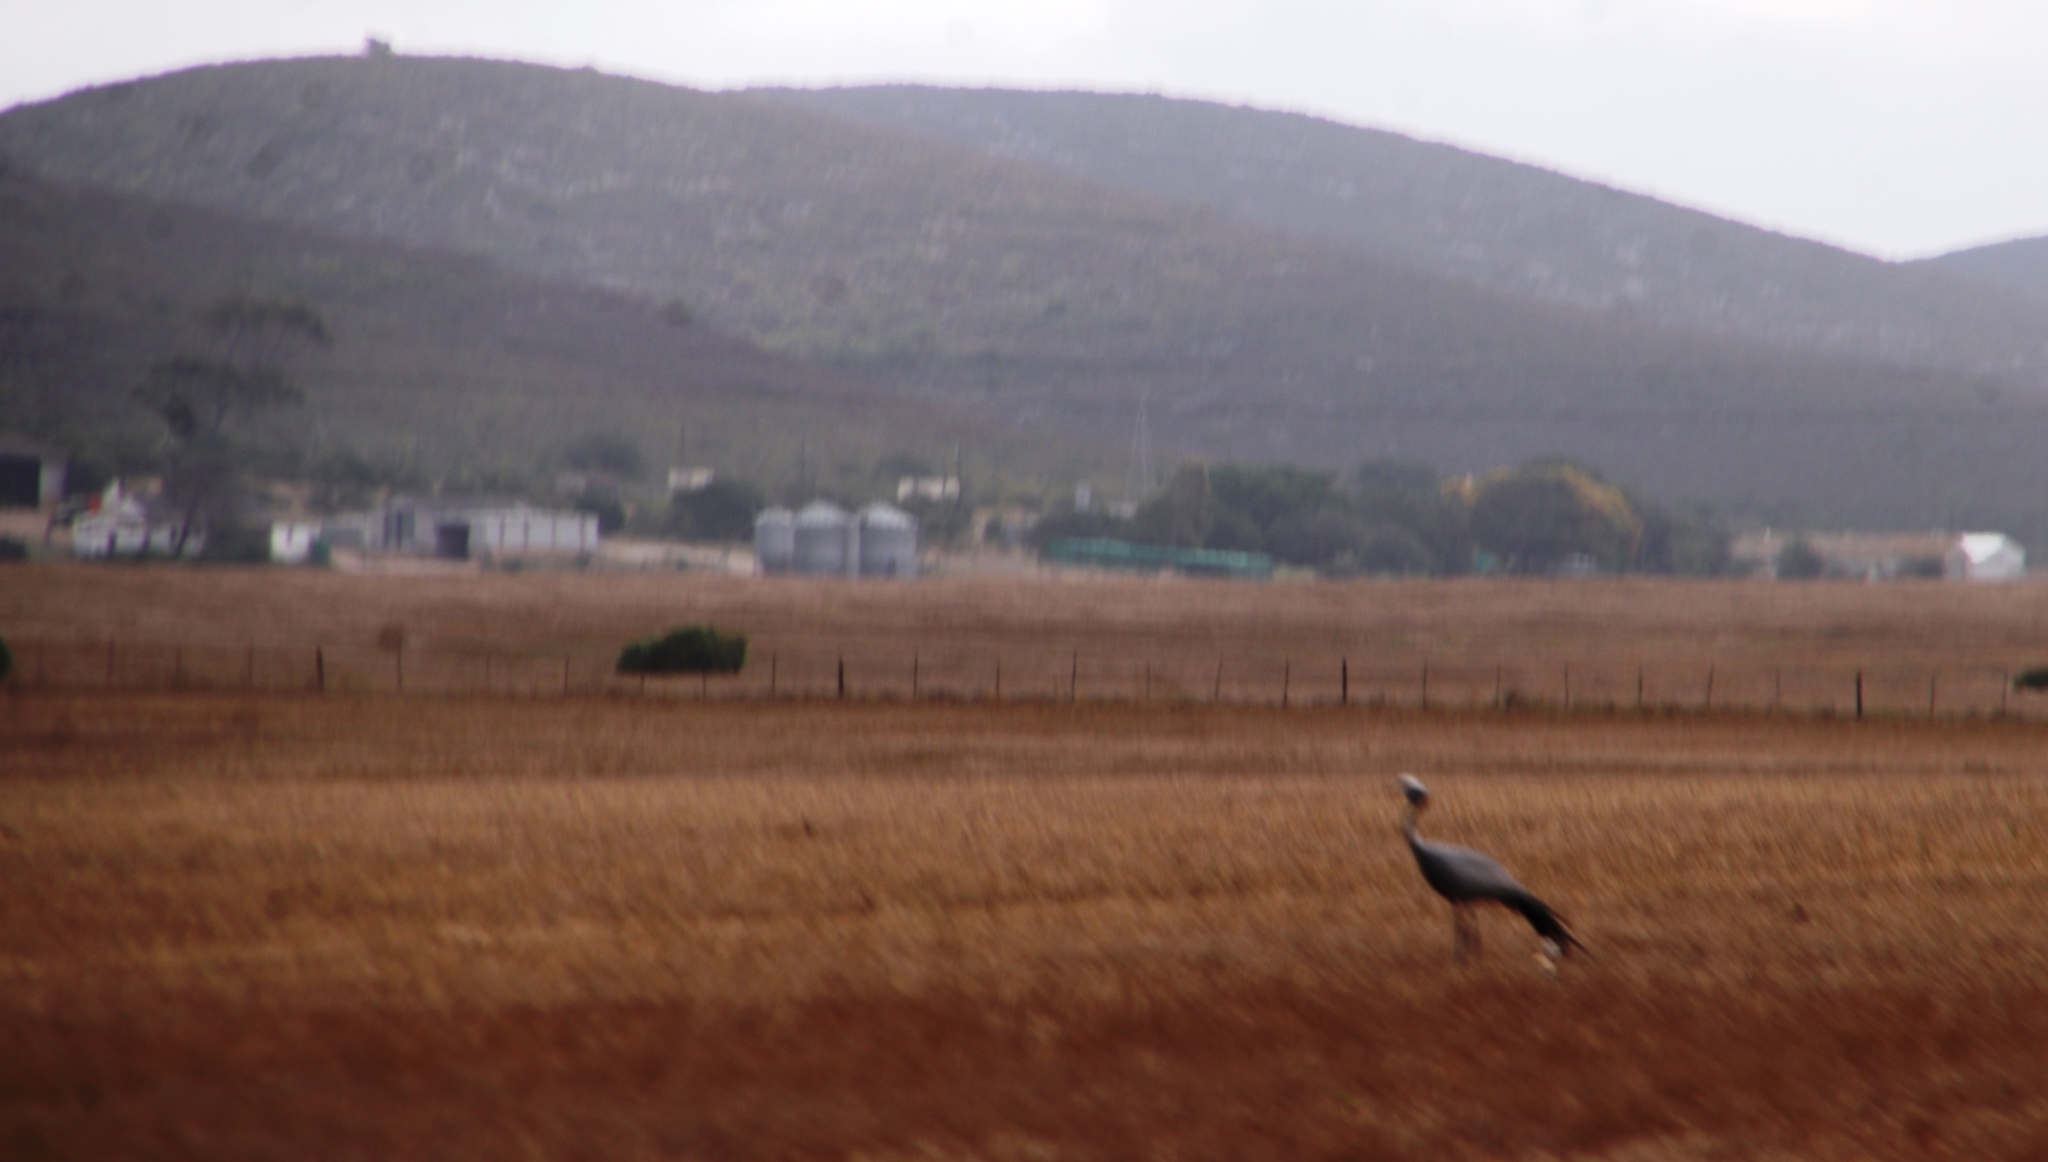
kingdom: Animalia
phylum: Chordata
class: Aves
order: Gruiformes
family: Gruidae
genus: Anthropoides
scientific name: Anthropoides paradiseus
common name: Blue crane
